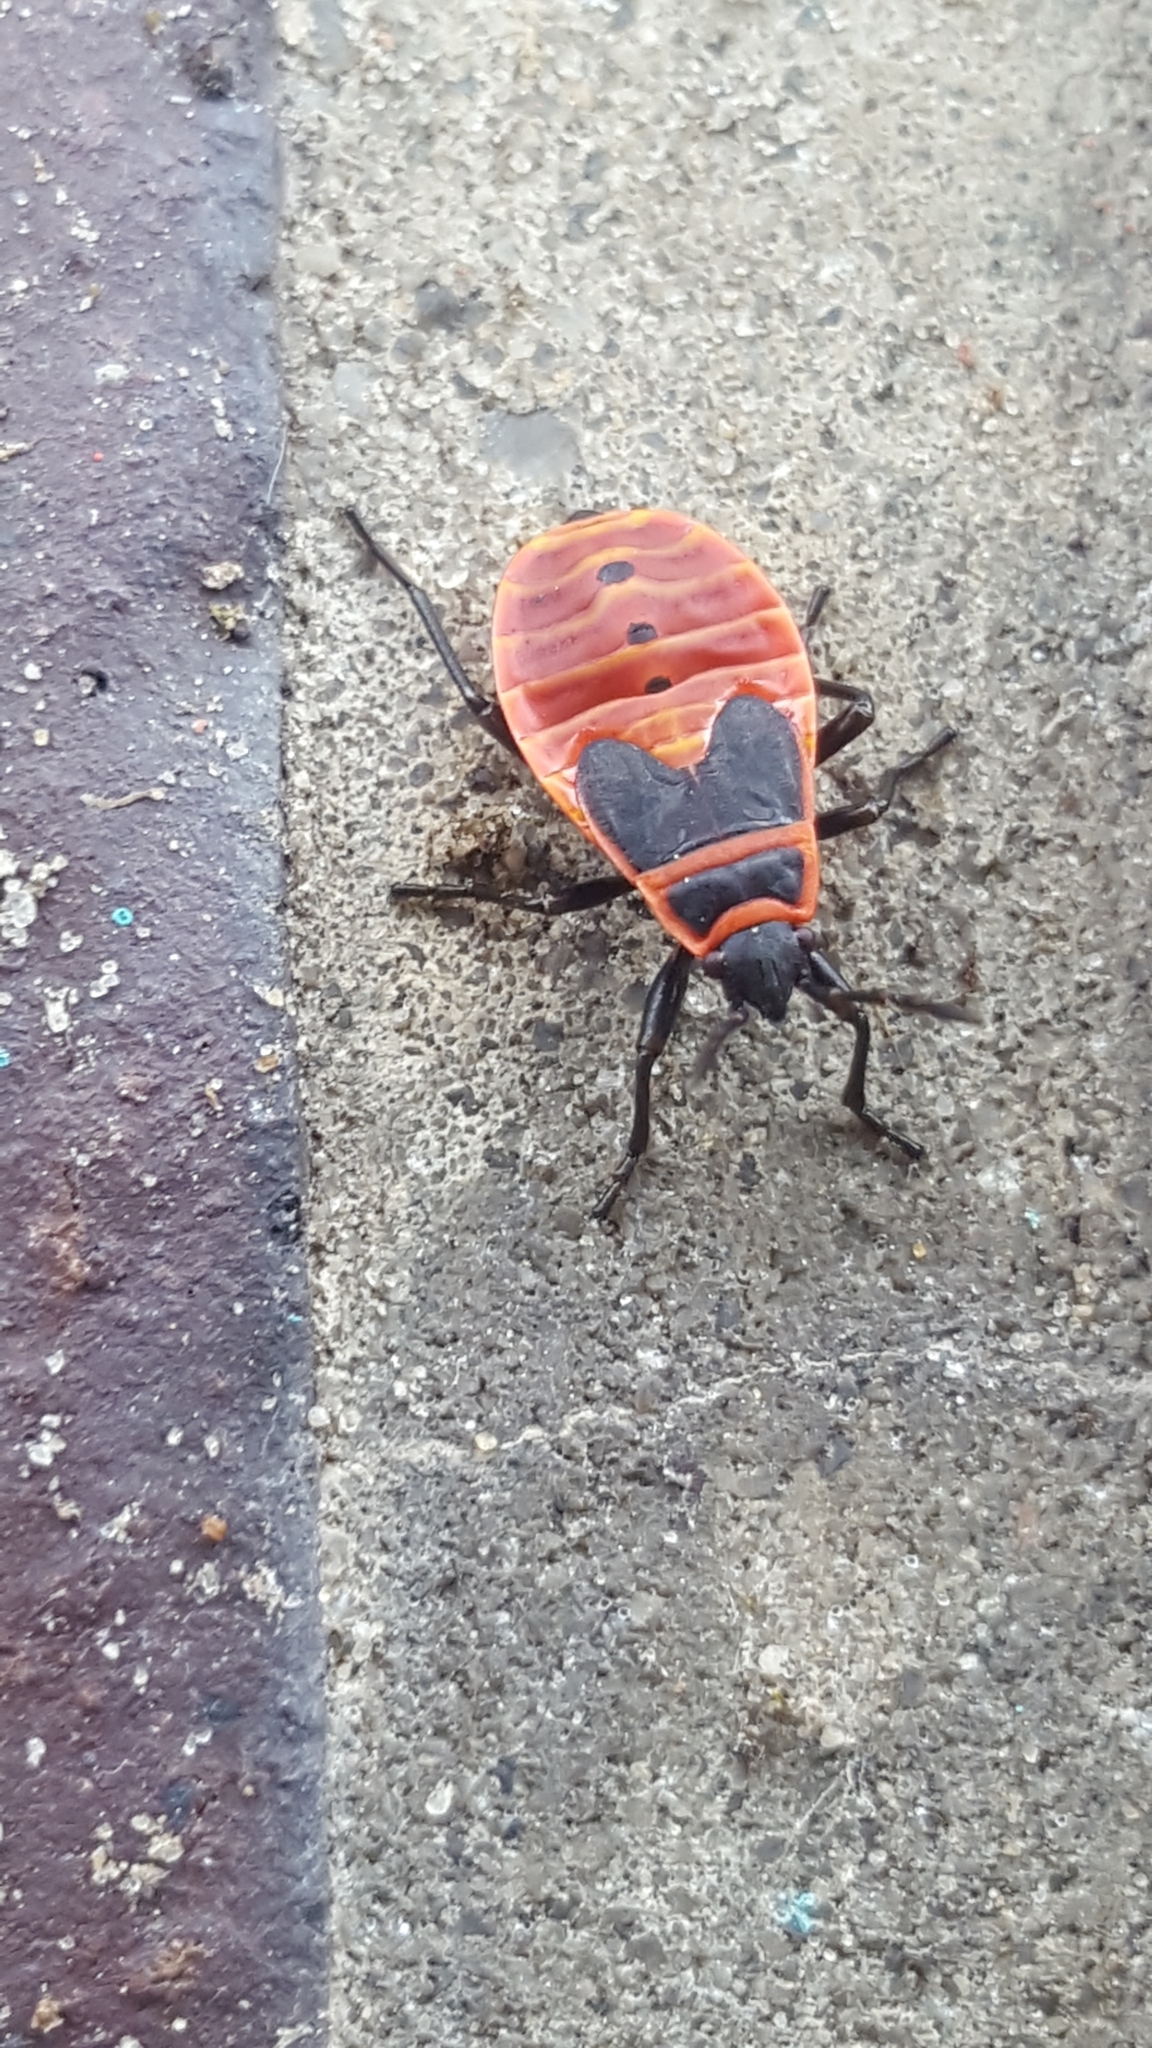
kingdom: Animalia
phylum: Arthropoda
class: Insecta
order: Hemiptera
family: Pyrrhocoridae
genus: Pyrrhocoris
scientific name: Pyrrhocoris apterus
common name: Firebug
